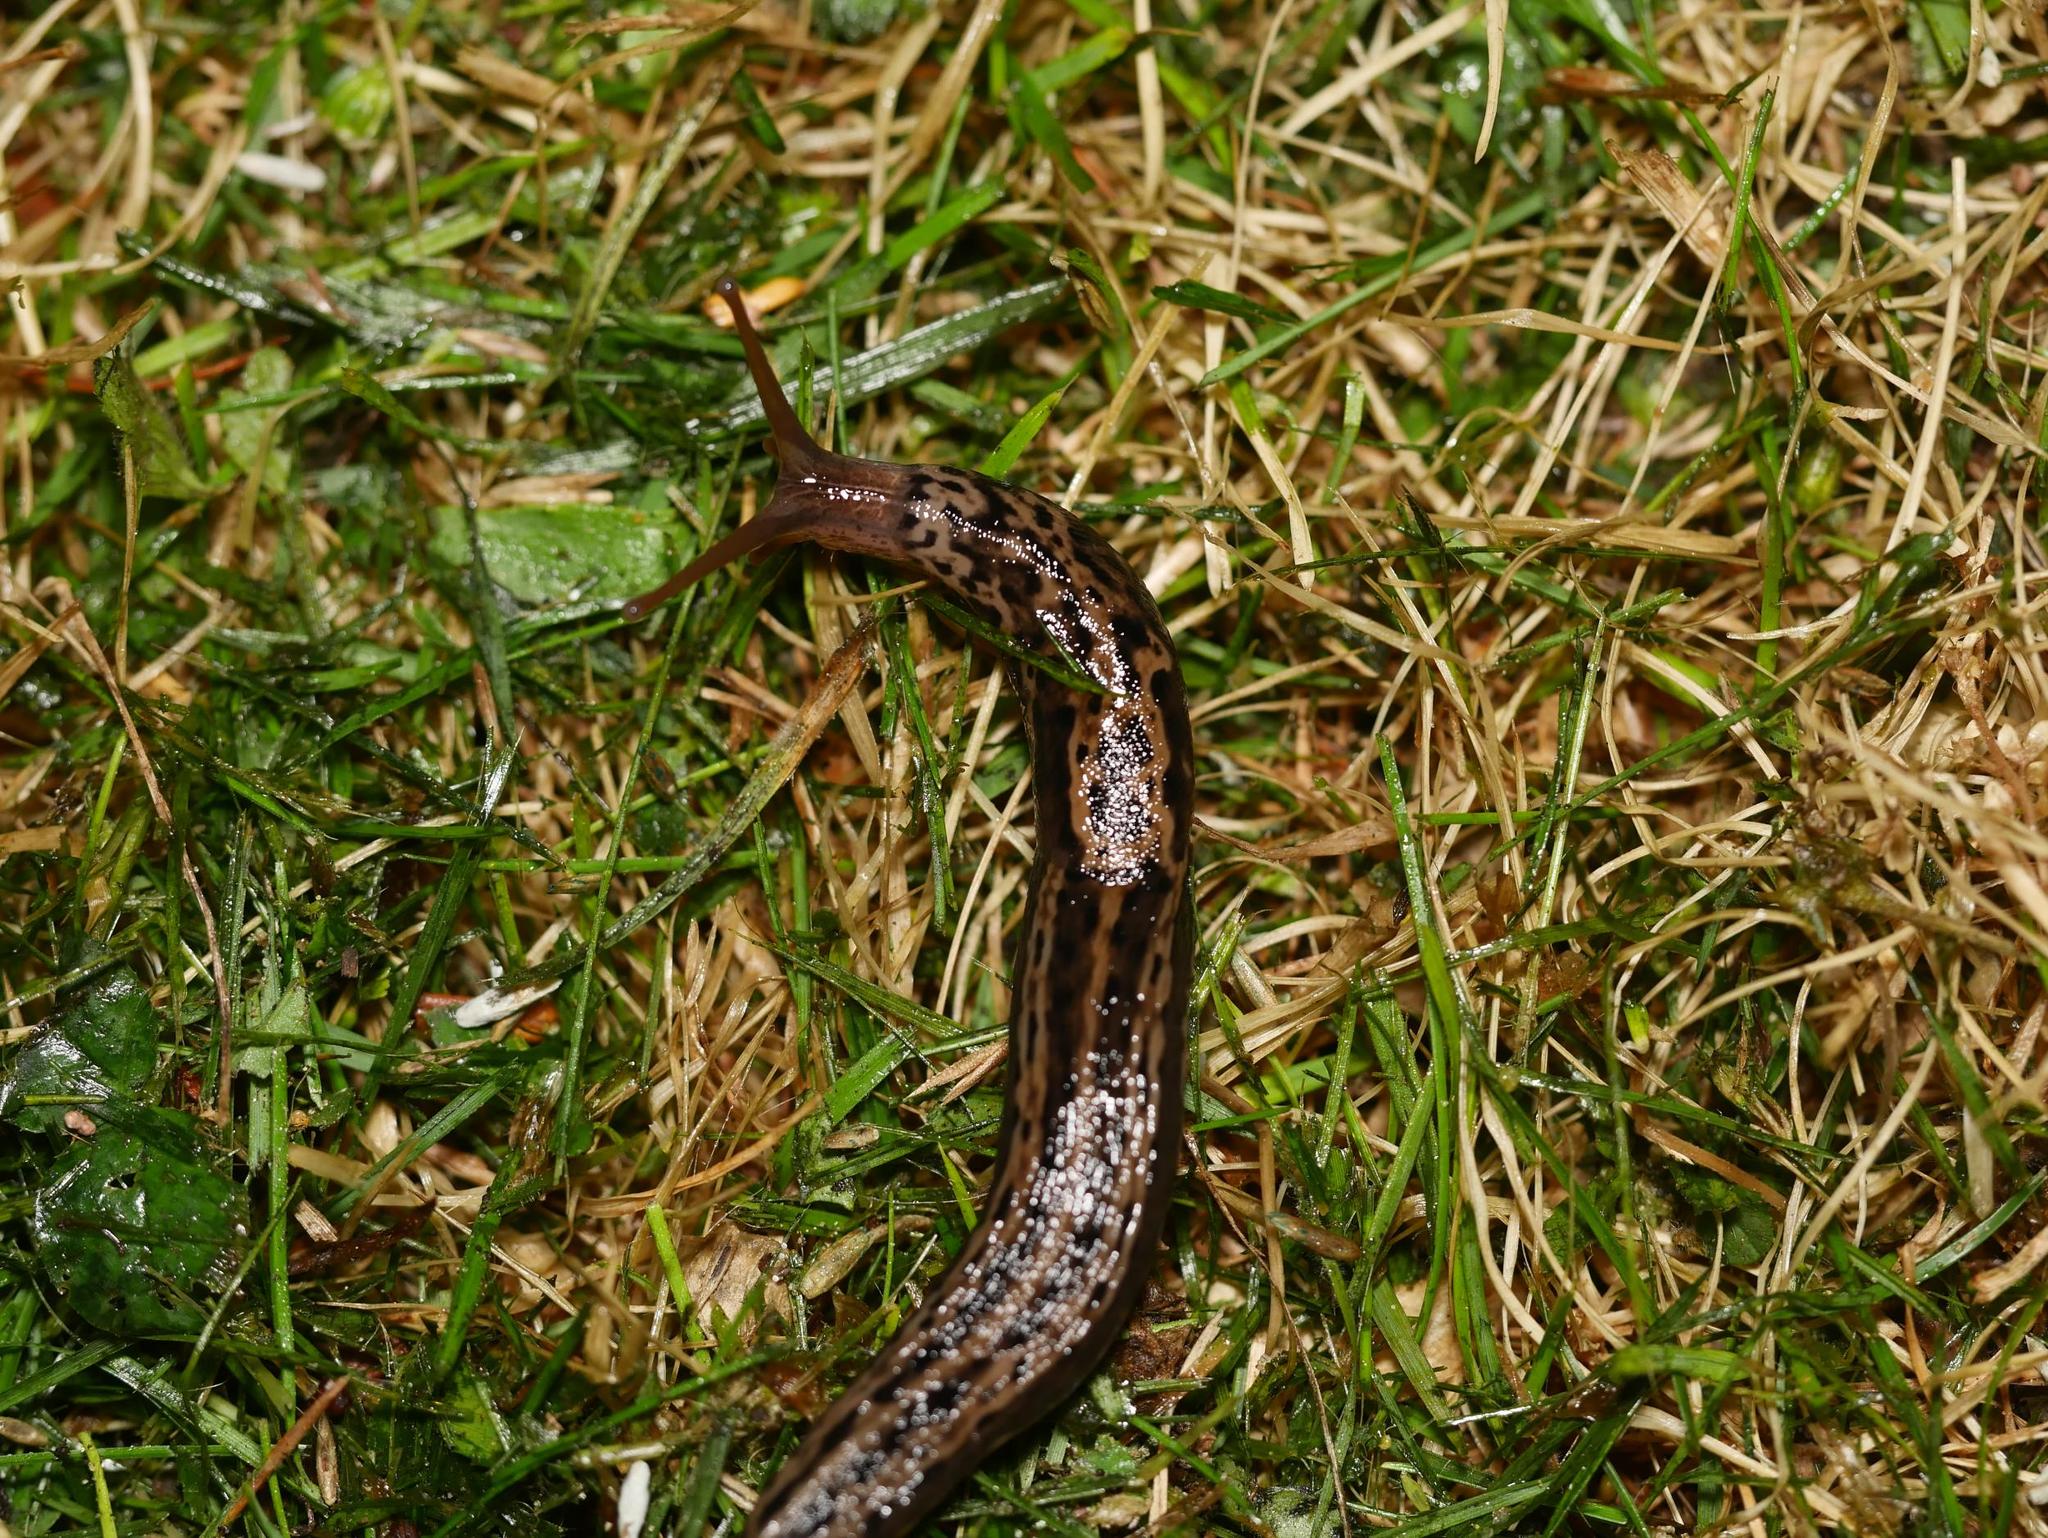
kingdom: Animalia
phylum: Mollusca
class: Gastropoda
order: Stylommatophora
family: Limacidae
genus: Limax
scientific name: Limax maximus
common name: Great grey slug
